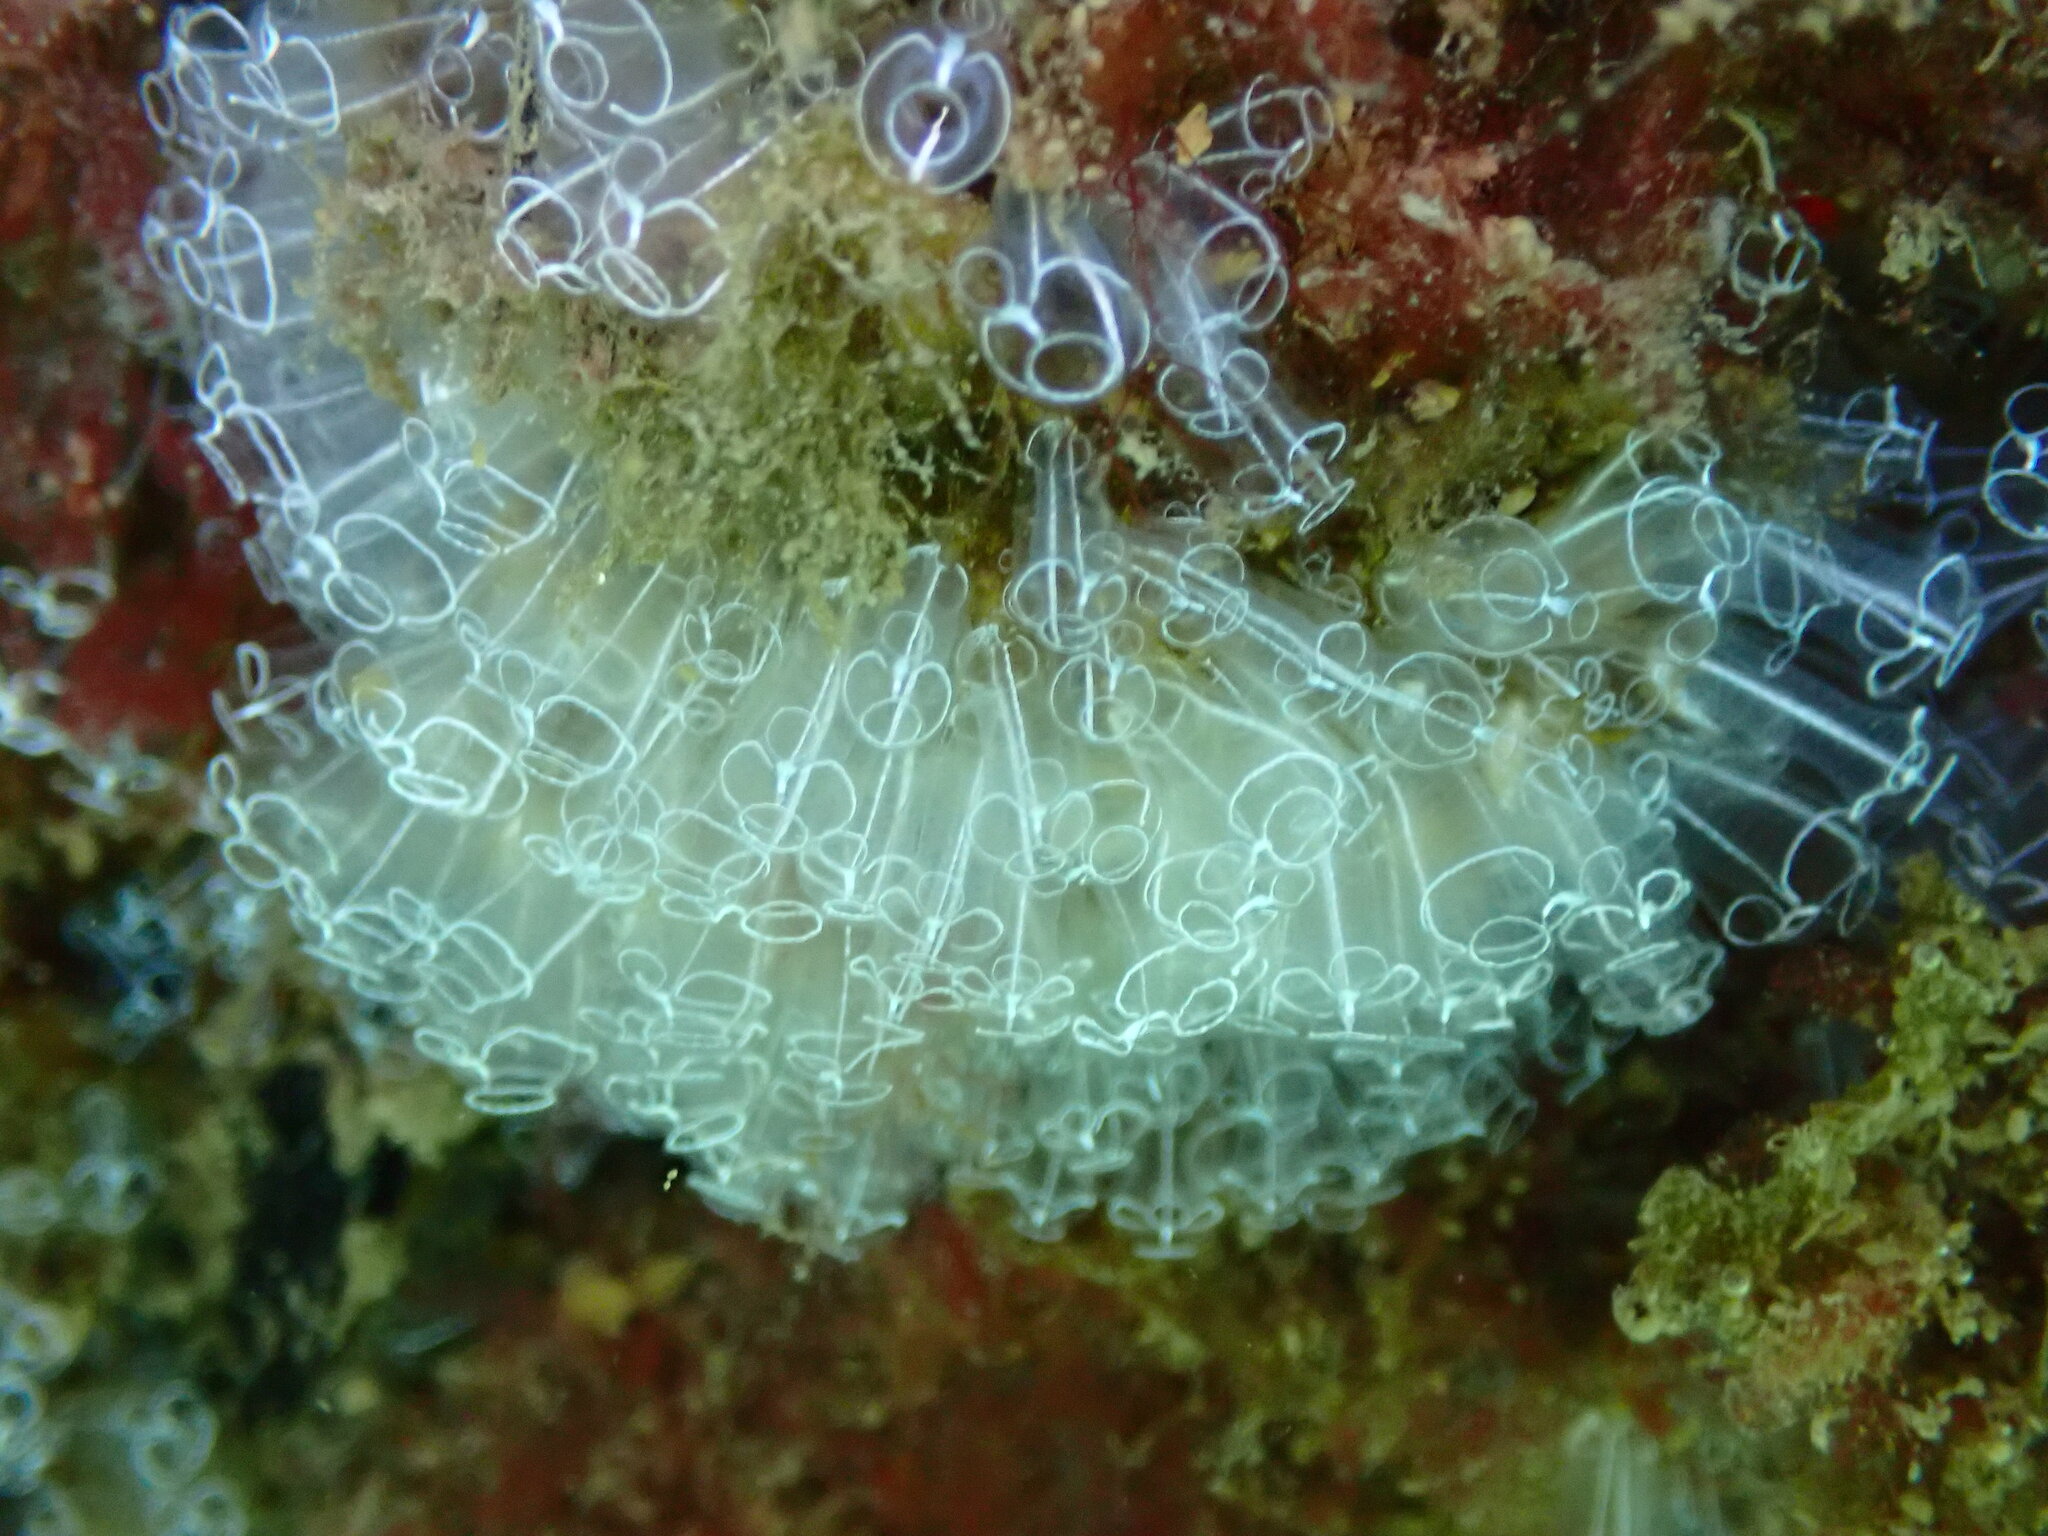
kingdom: Animalia
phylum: Chordata
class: Ascidiacea
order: Aplousobranchia
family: Clavelinidae
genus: Clavelina
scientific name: Clavelina lepadiformis
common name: Light bulb tunicate
